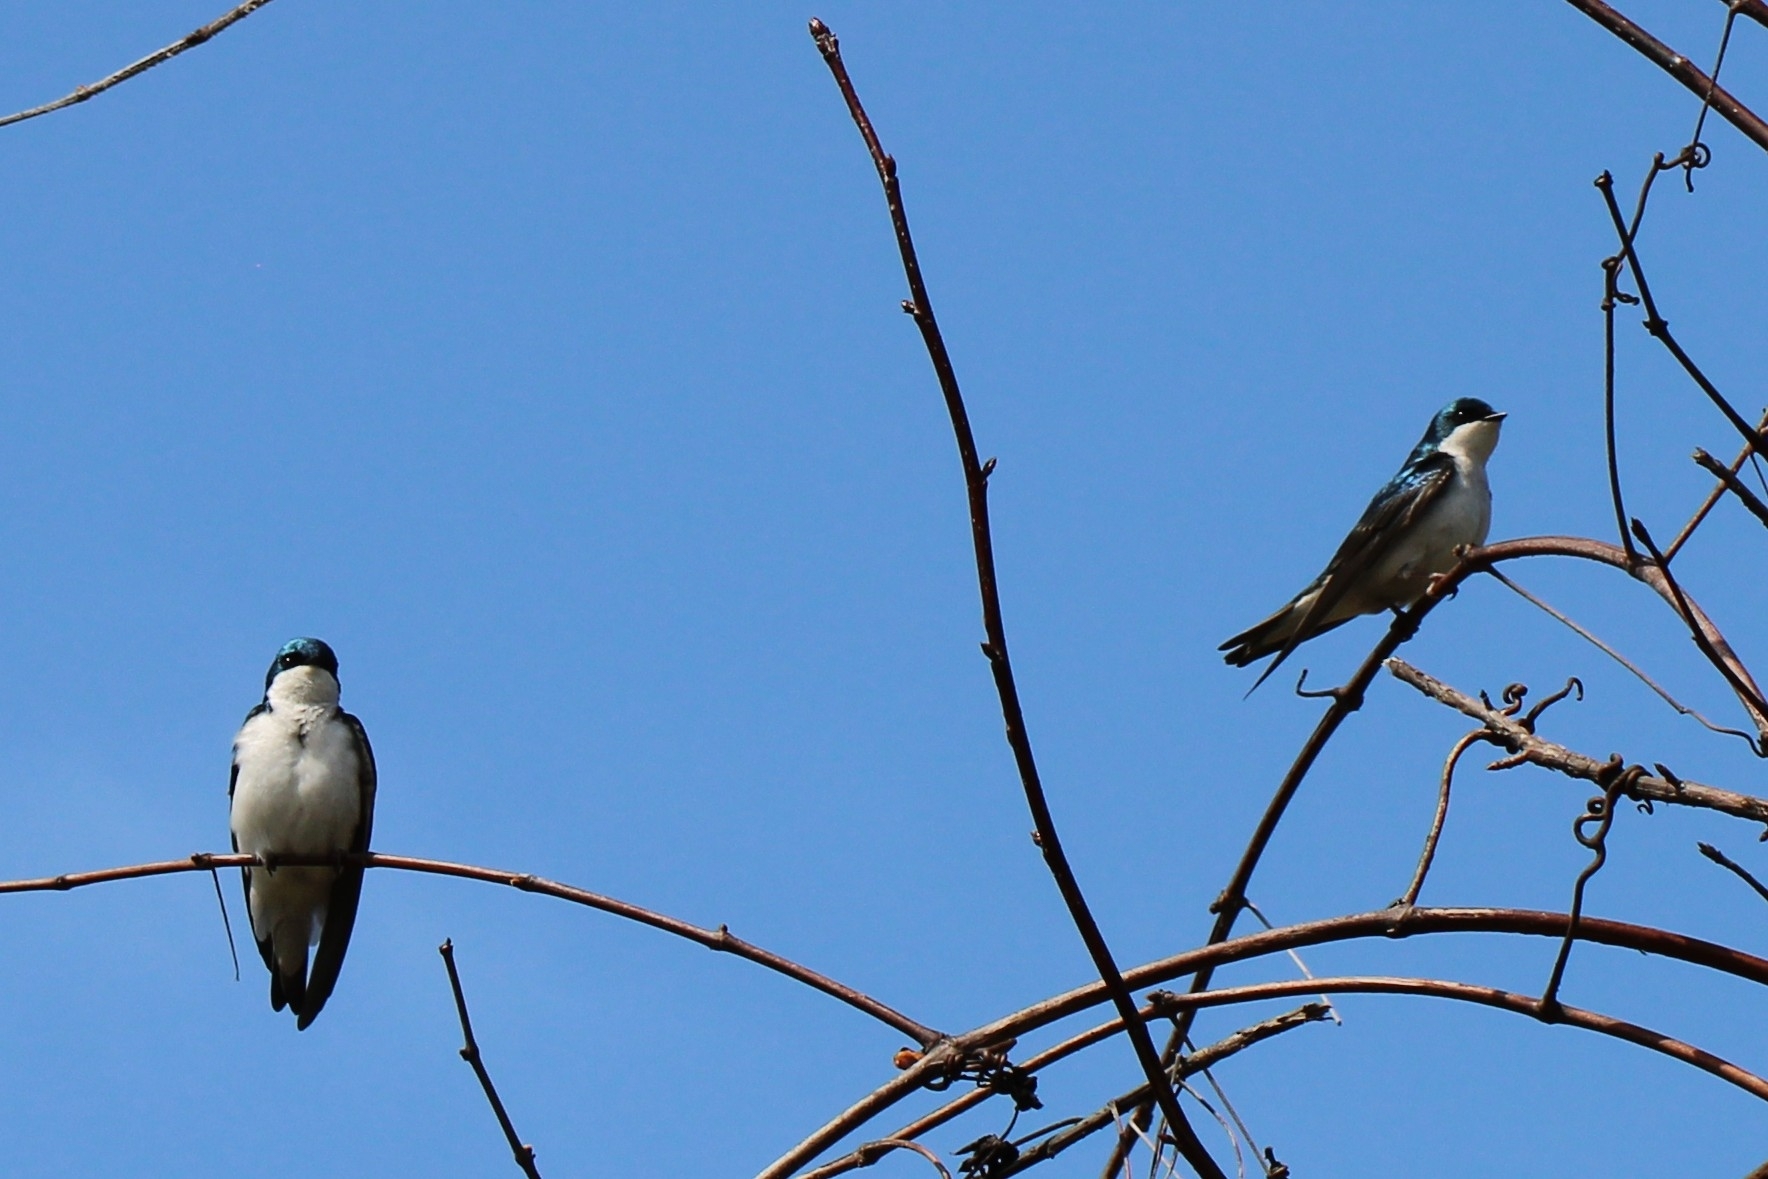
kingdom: Animalia
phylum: Chordata
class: Aves
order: Passeriformes
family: Hirundinidae
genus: Tachycineta
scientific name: Tachycineta bicolor
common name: Tree swallow
